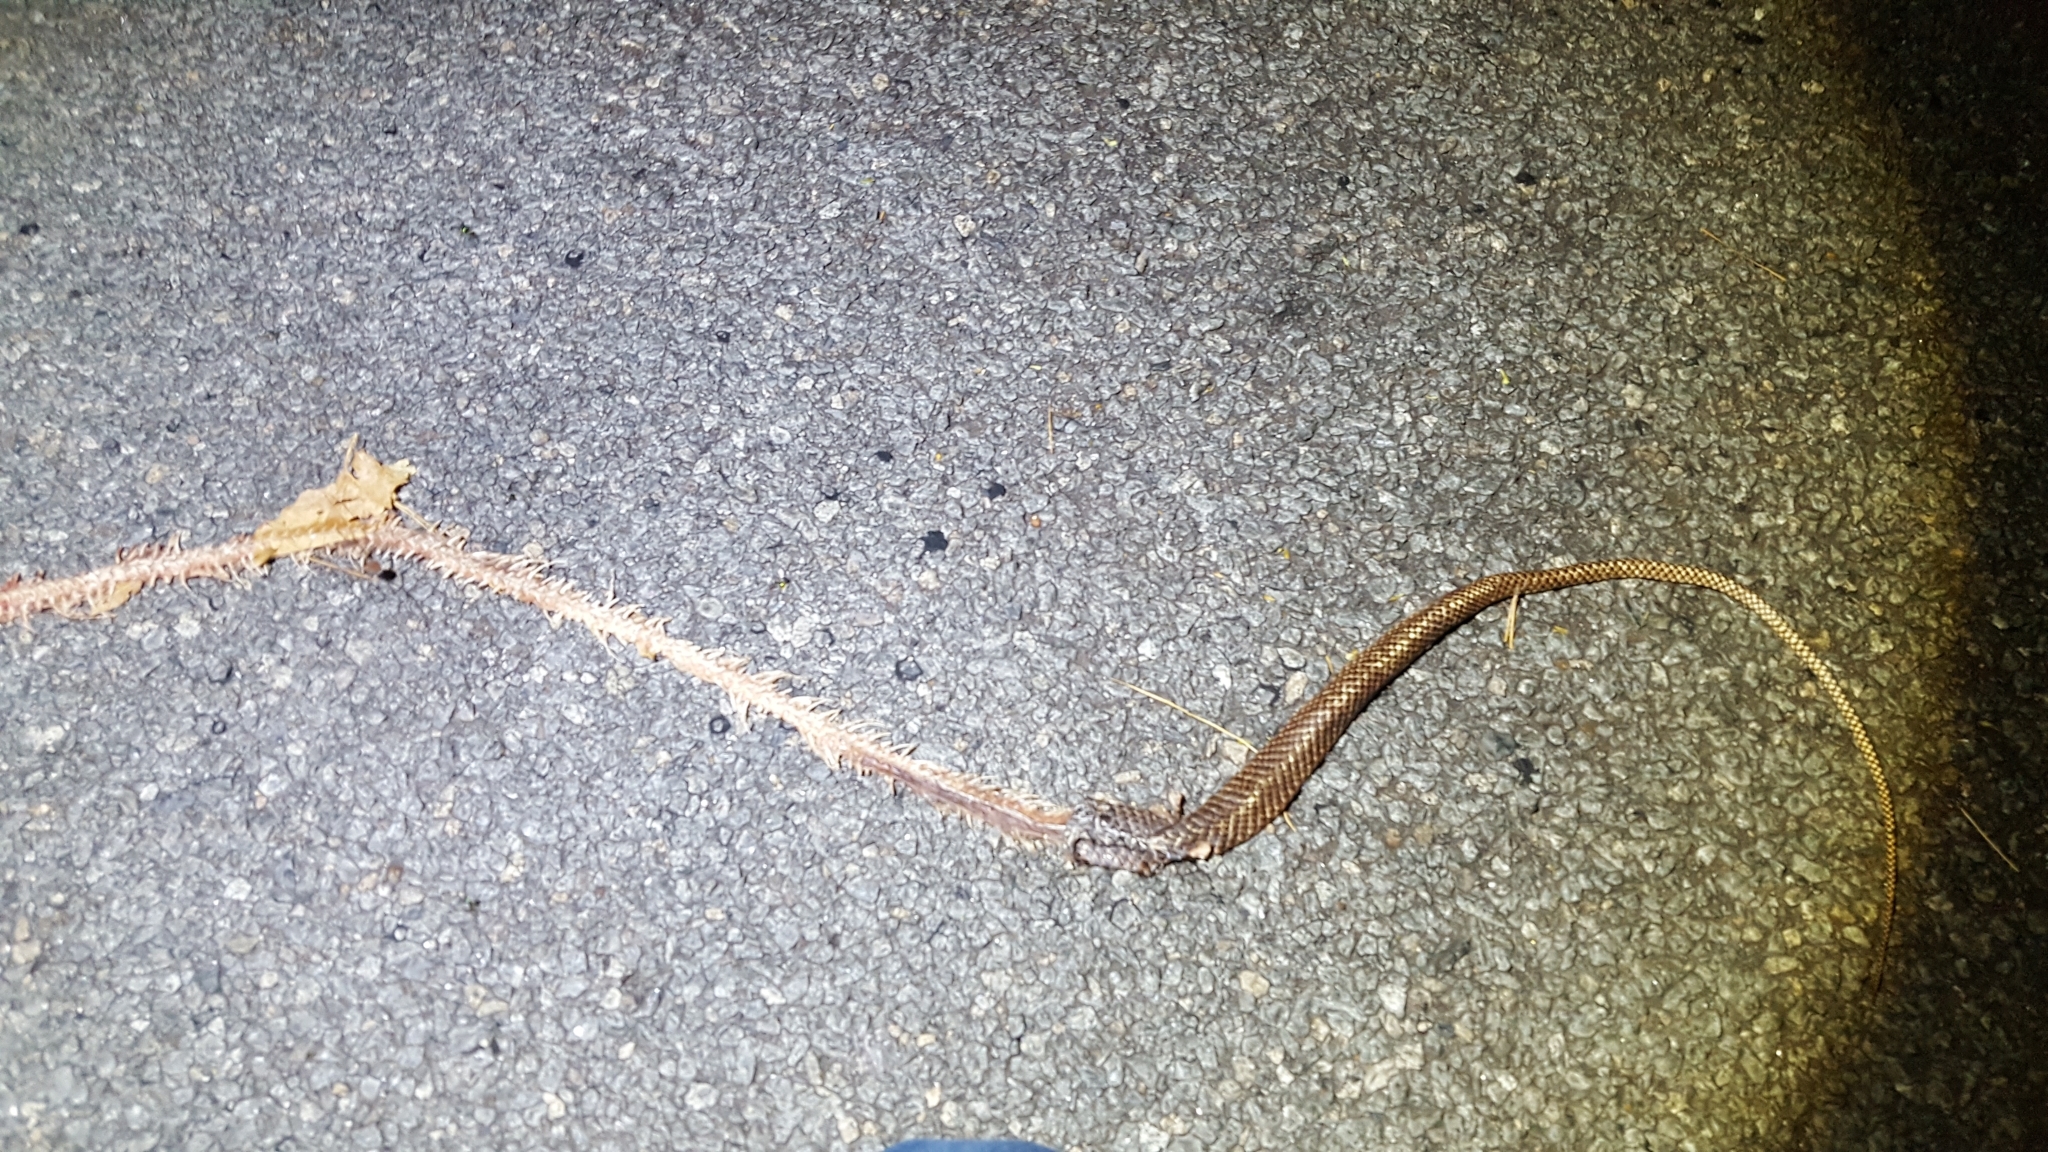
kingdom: Animalia
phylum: Chordata
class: Squamata
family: Colubridae
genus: Masticophis
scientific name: Masticophis flagellum
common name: Coachwhip
